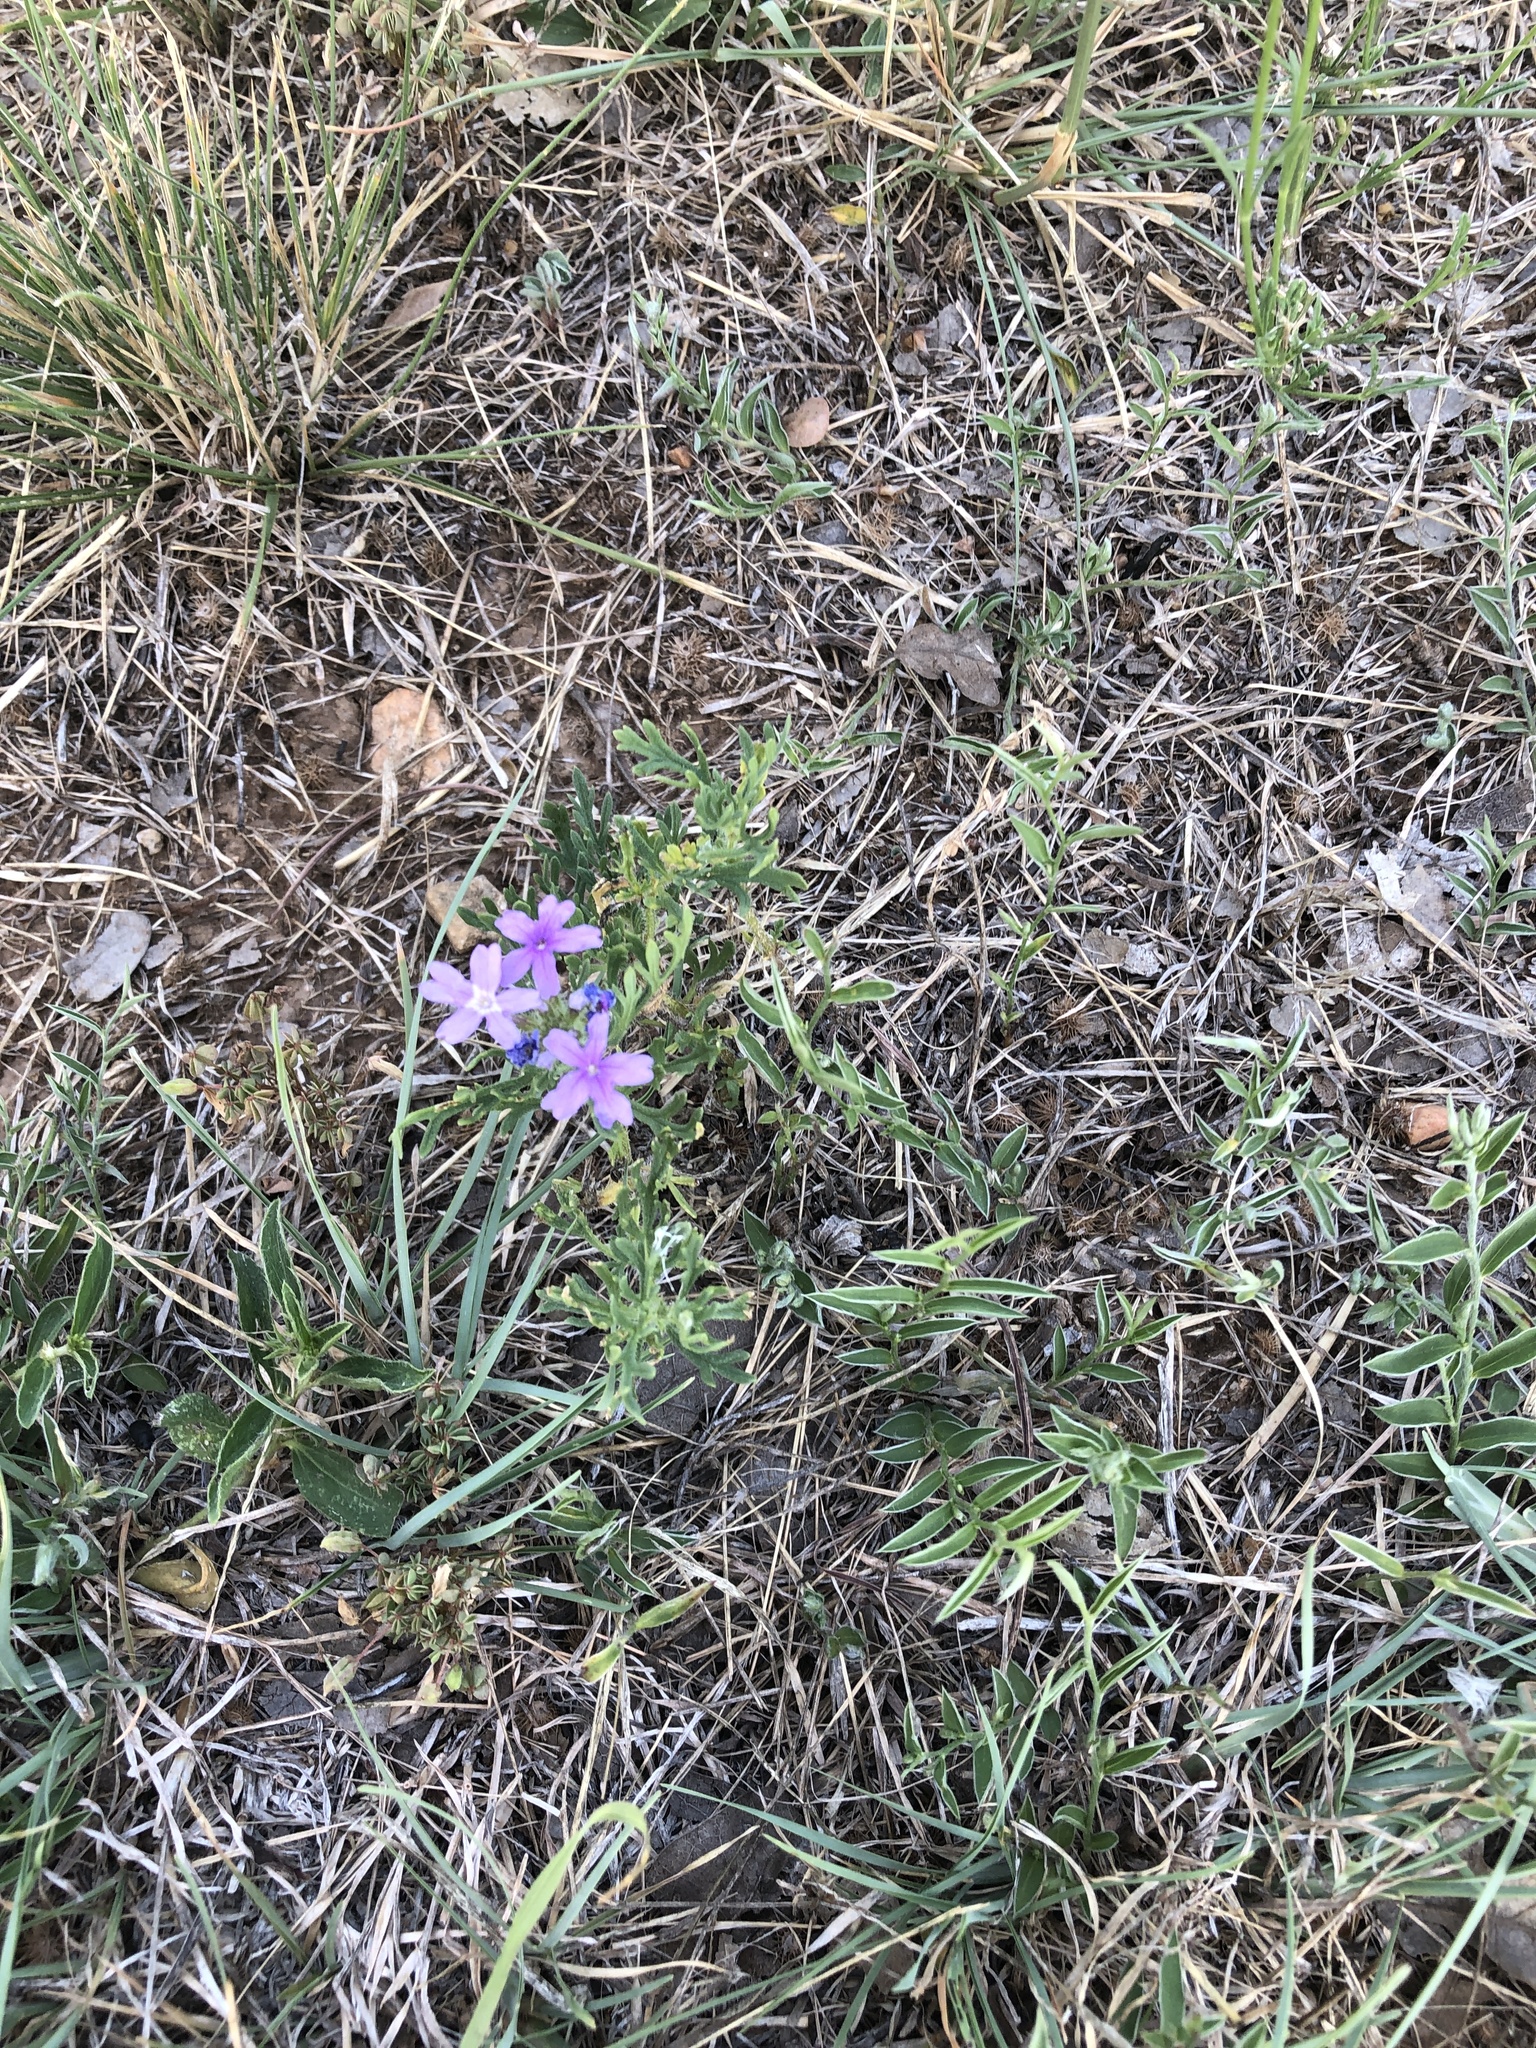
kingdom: Plantae
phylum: Tracheophyta
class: Magnoliopsida
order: Lamiales
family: Verbenaceae
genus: Verbena
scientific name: Verbena bipinnatifida
